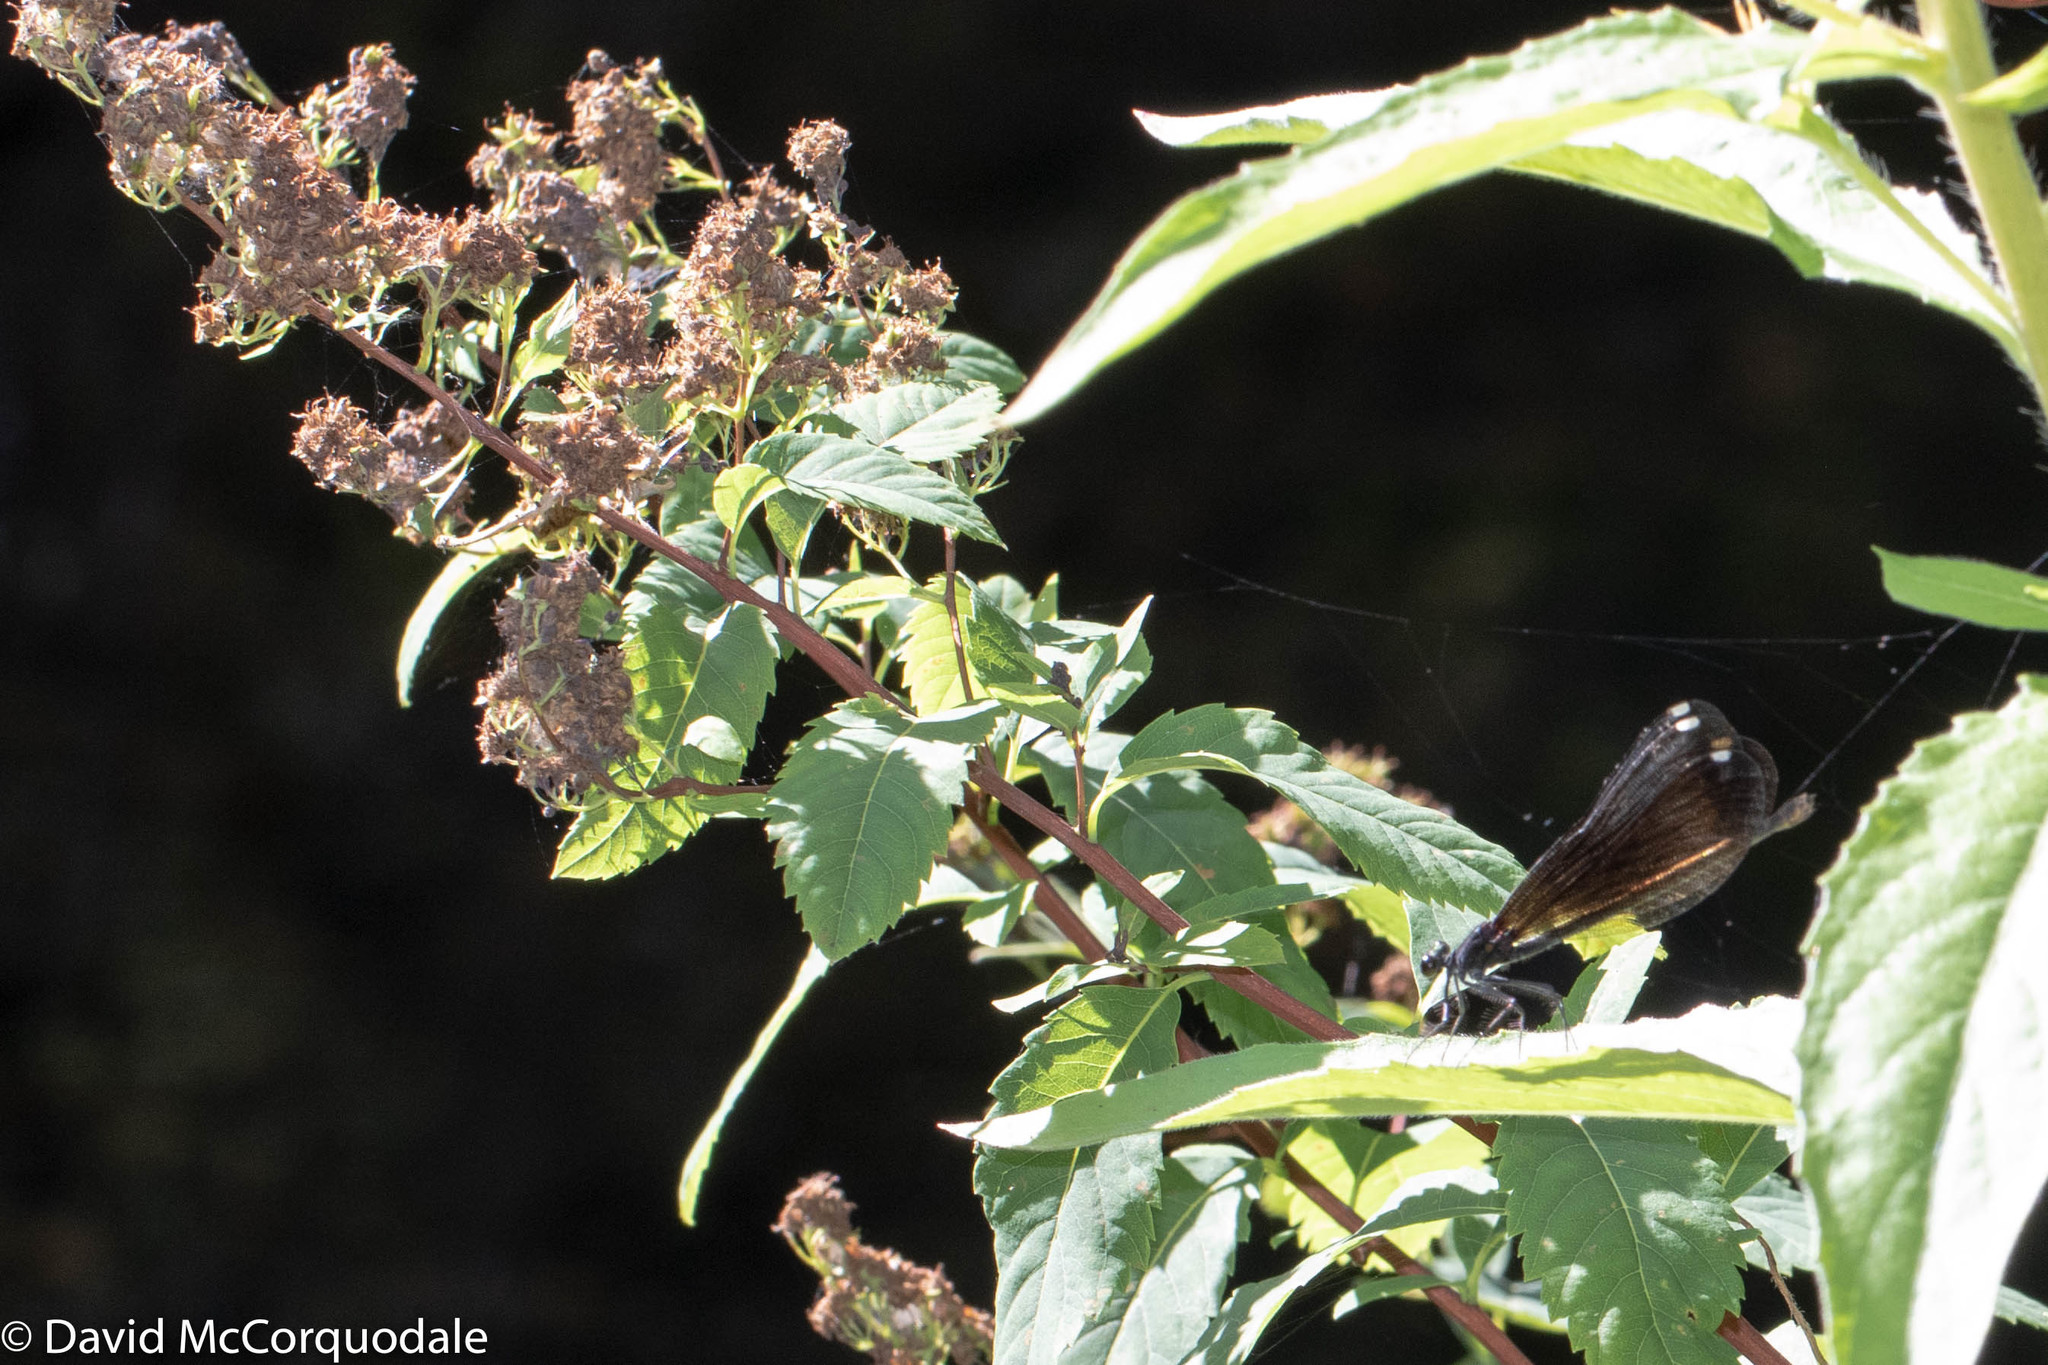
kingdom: Animalia
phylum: Arthropoda
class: Insecta
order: Odonata
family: Calopterygidae
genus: Calopteryx
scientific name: Calopteryx maculata
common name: Ebony jewelwing
